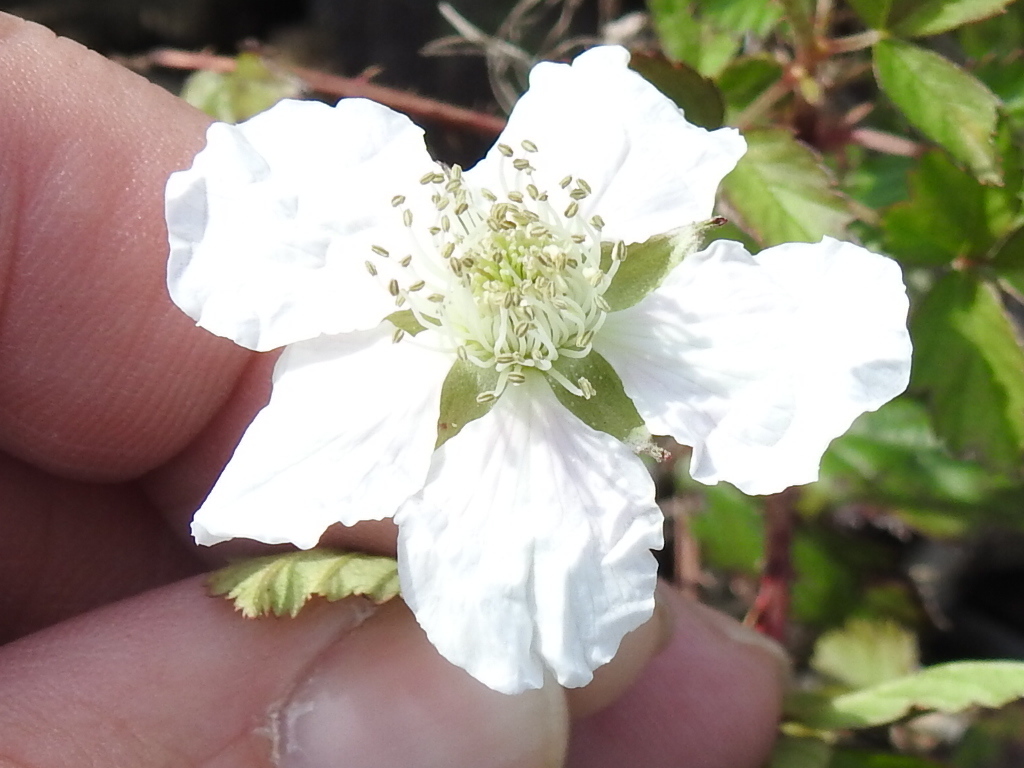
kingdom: Plantae
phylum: Tracheophyta
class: Magnoliopsida
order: Rosales
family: Rosaceae
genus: Rubus
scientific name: Rubus trivialis
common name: Southern dewberry
